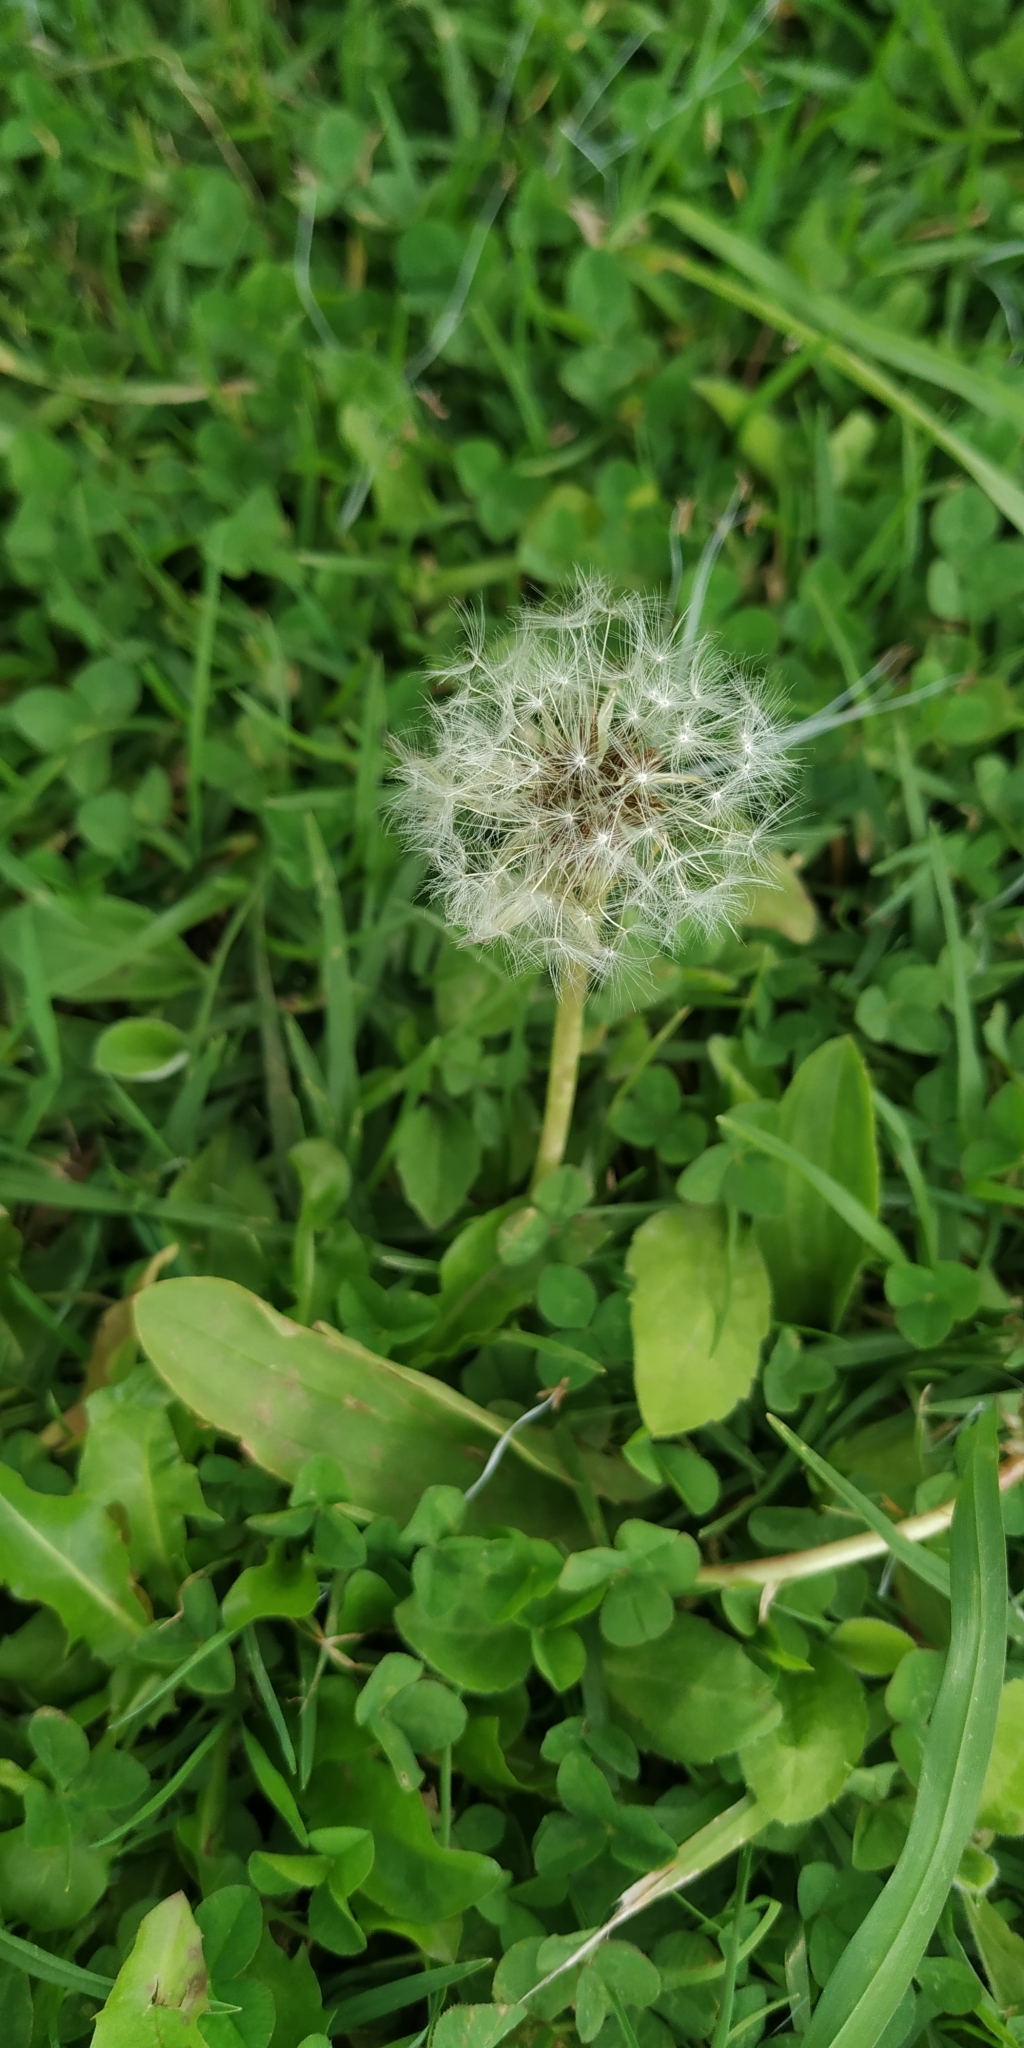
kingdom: Plantae
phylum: Tracheophyta
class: Magnoliopsida
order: Asterales
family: Asteraceae
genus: Taraxacum
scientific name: Taraxacum officinale
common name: Common dandelion
